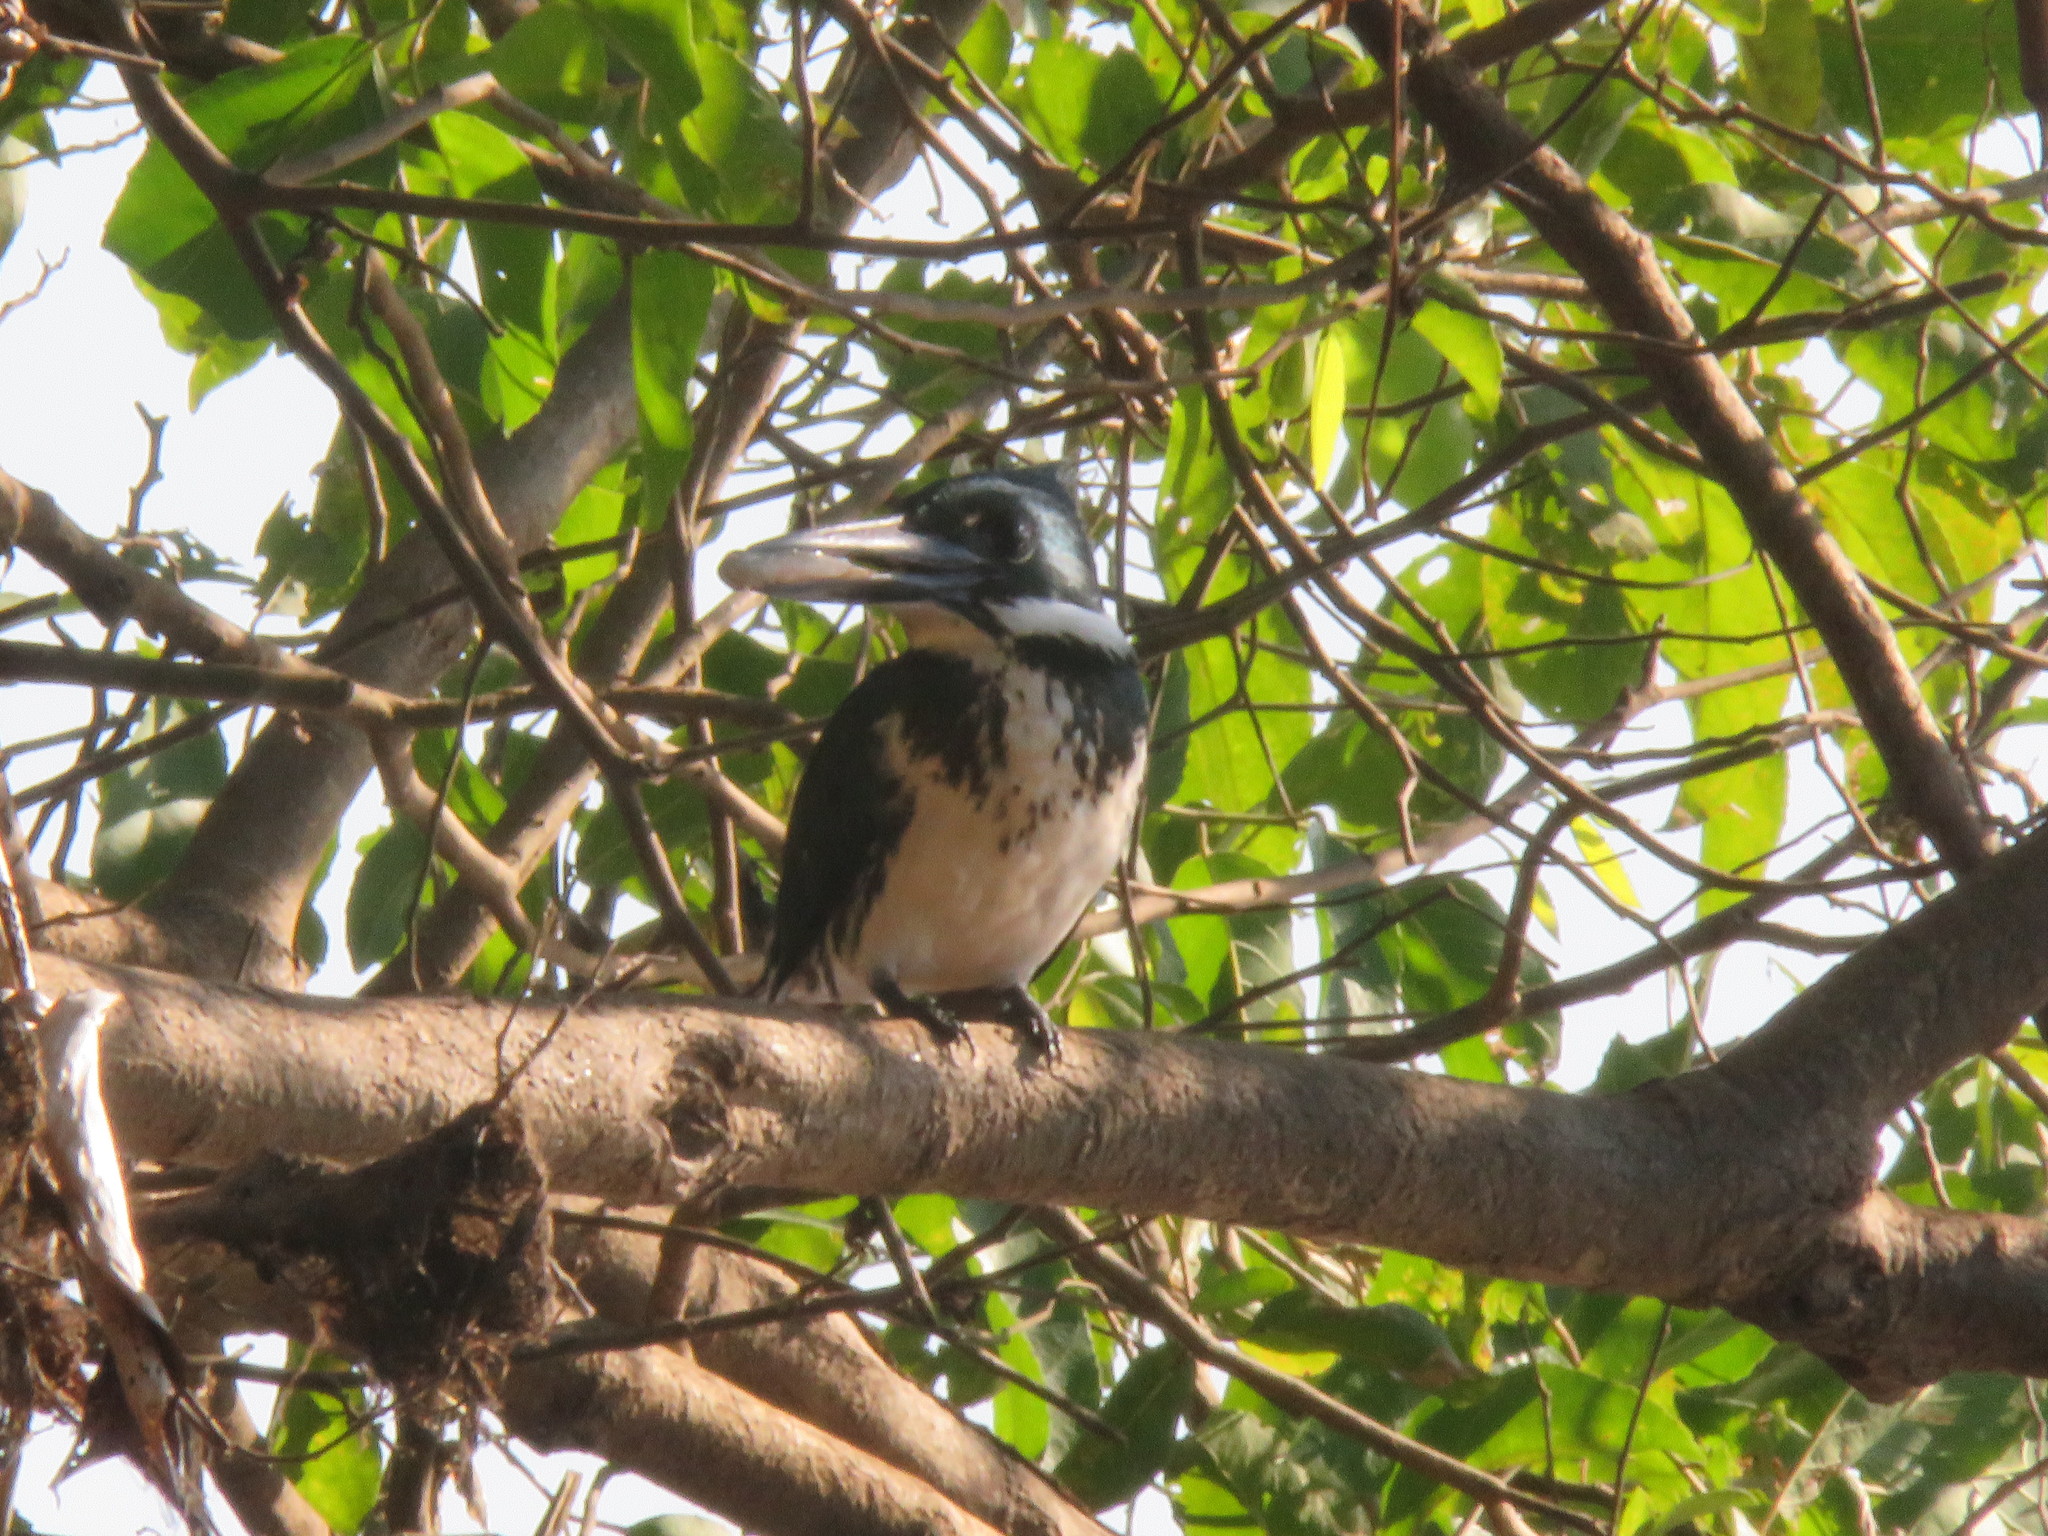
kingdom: Animalia
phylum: Chordata
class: Aves
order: Coraciiformes
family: Alcedinidae
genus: Chloroceryle
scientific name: Chloroceryle amazona
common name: Amazon kingfisher
